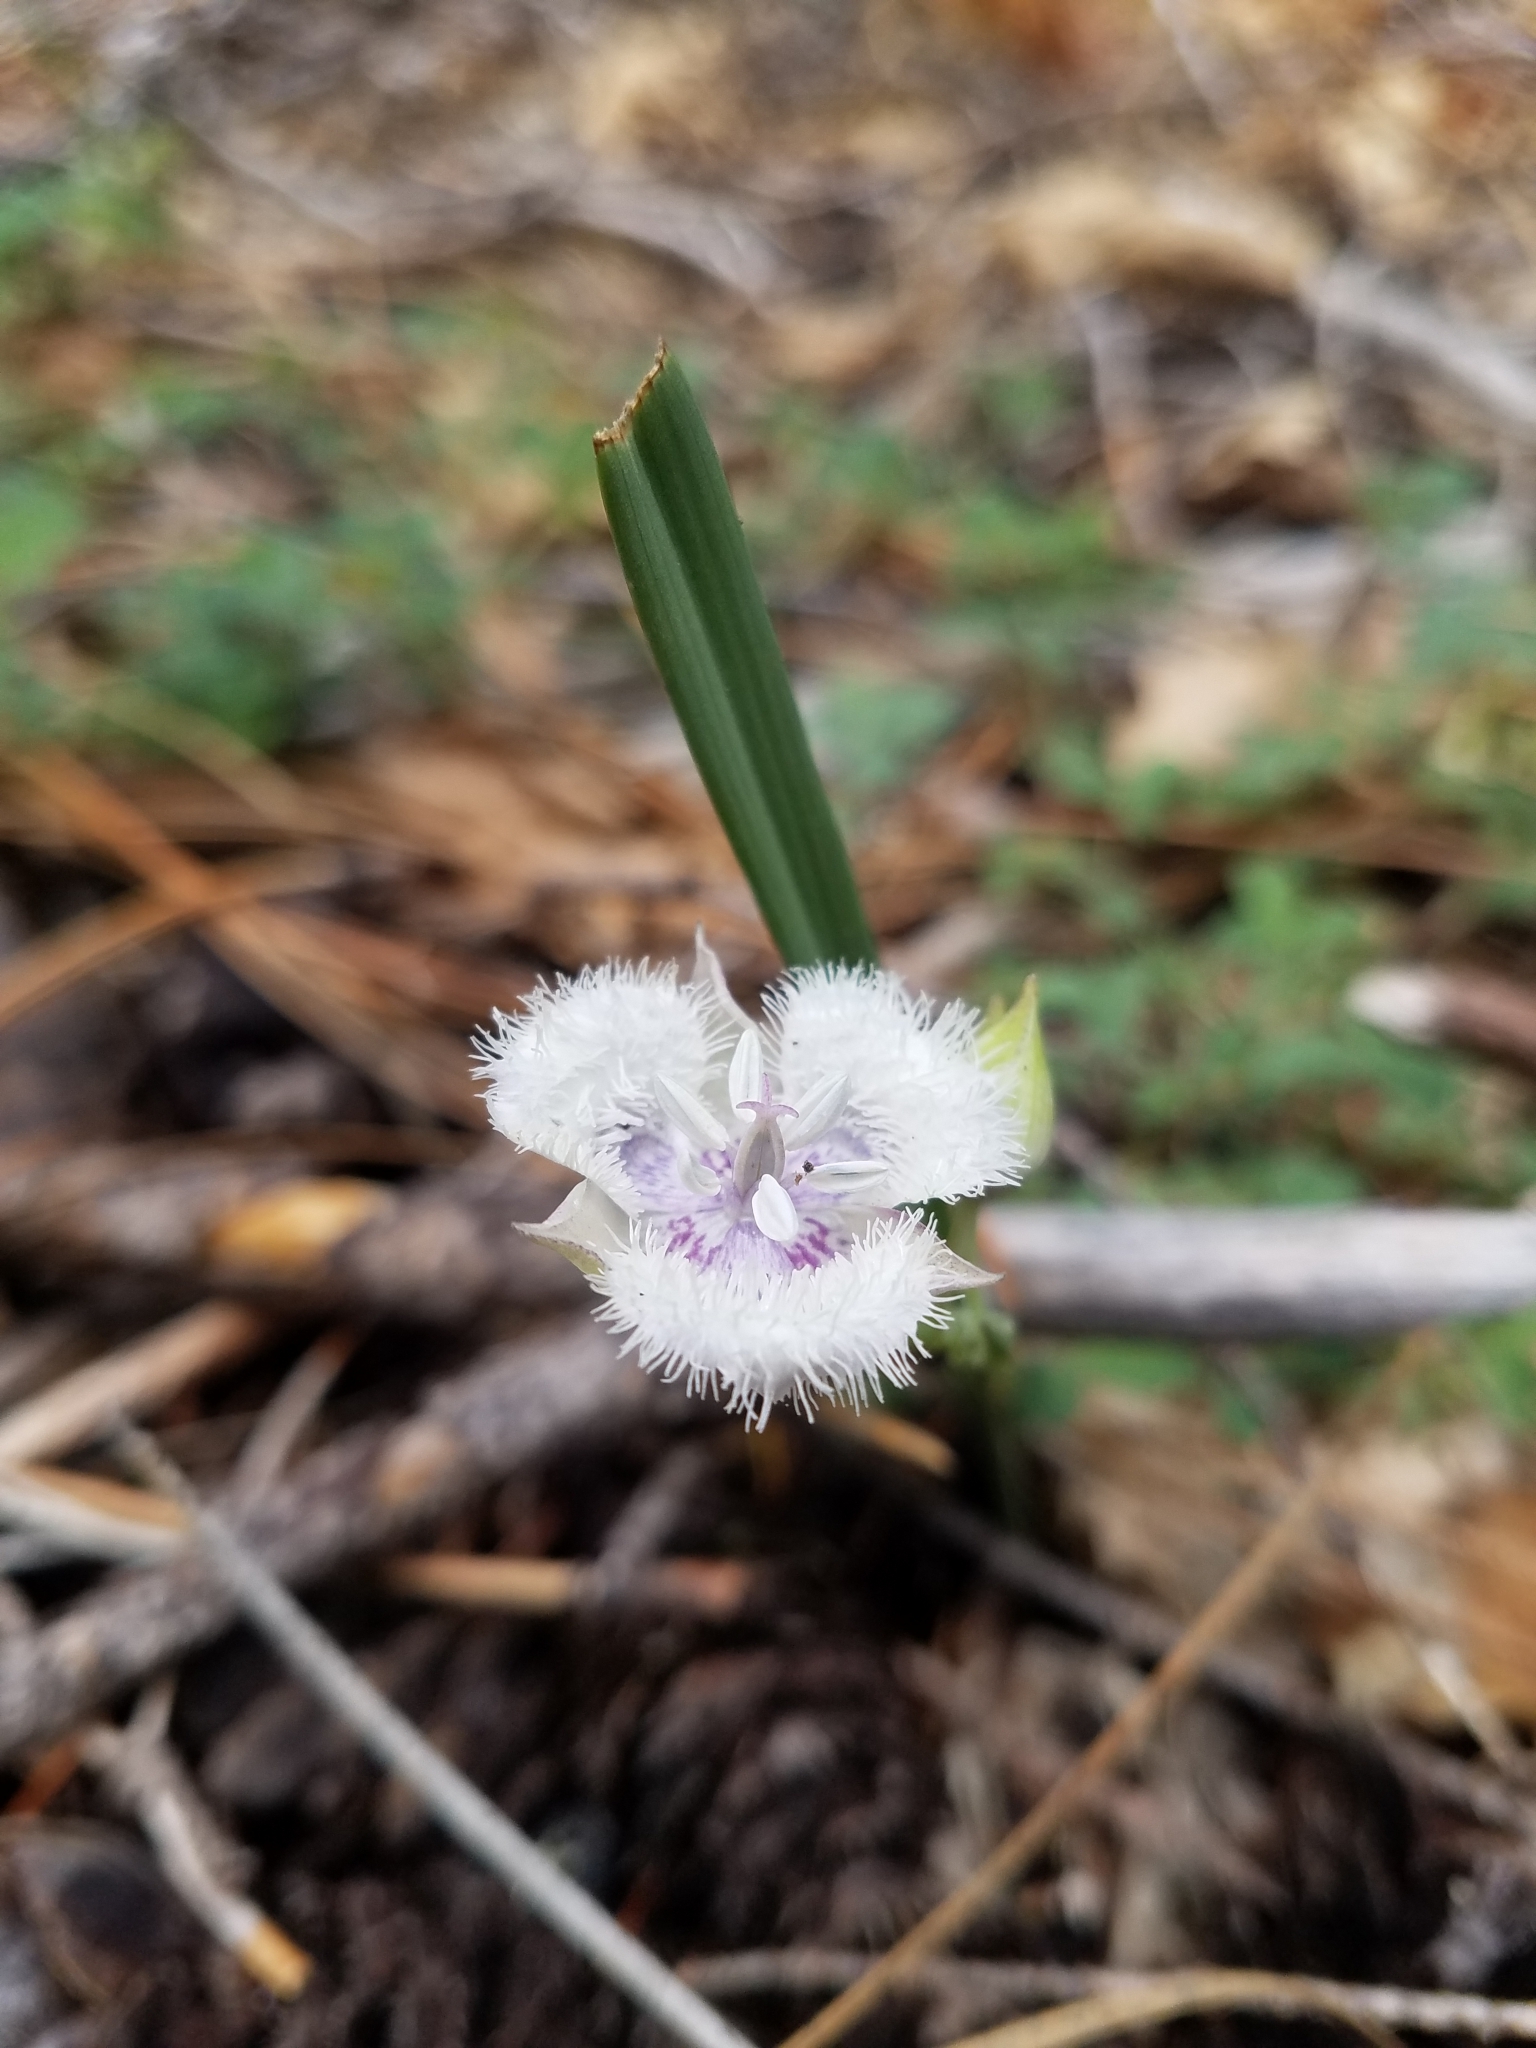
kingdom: Plantae
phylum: Tracheophyta
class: Liliopsida
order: Liliales
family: Liliaceae
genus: Calochortus
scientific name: Calochortus coeruleus
